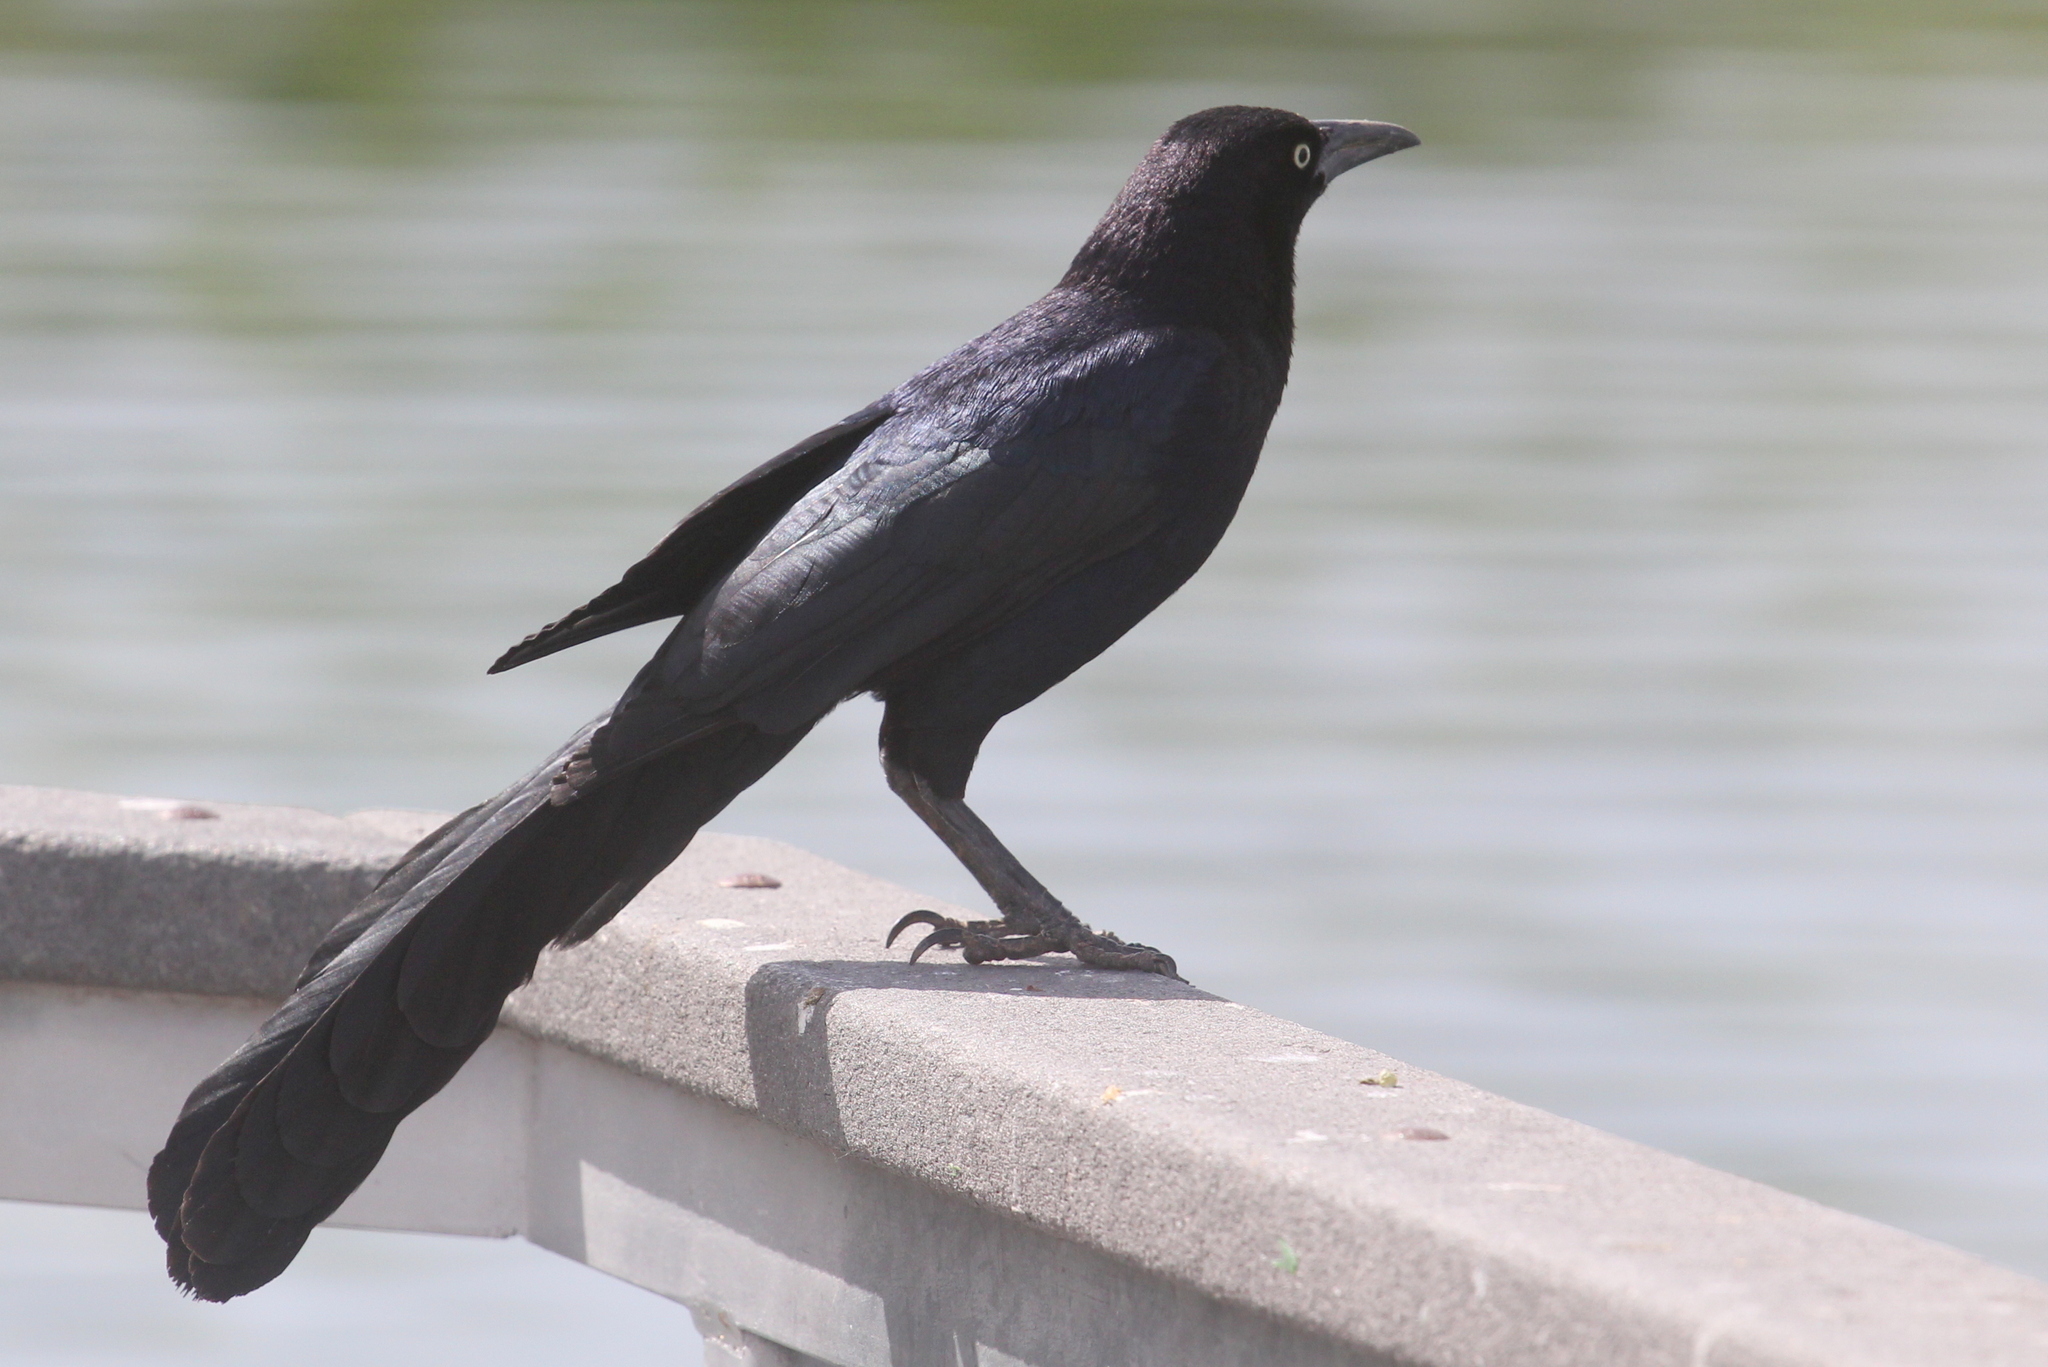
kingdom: Animalia
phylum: Chordata
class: Aves
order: Passeriformes
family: Icteridae
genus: Quiscalus
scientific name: Quiscalus mexicanus
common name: Great-tailed grackle
